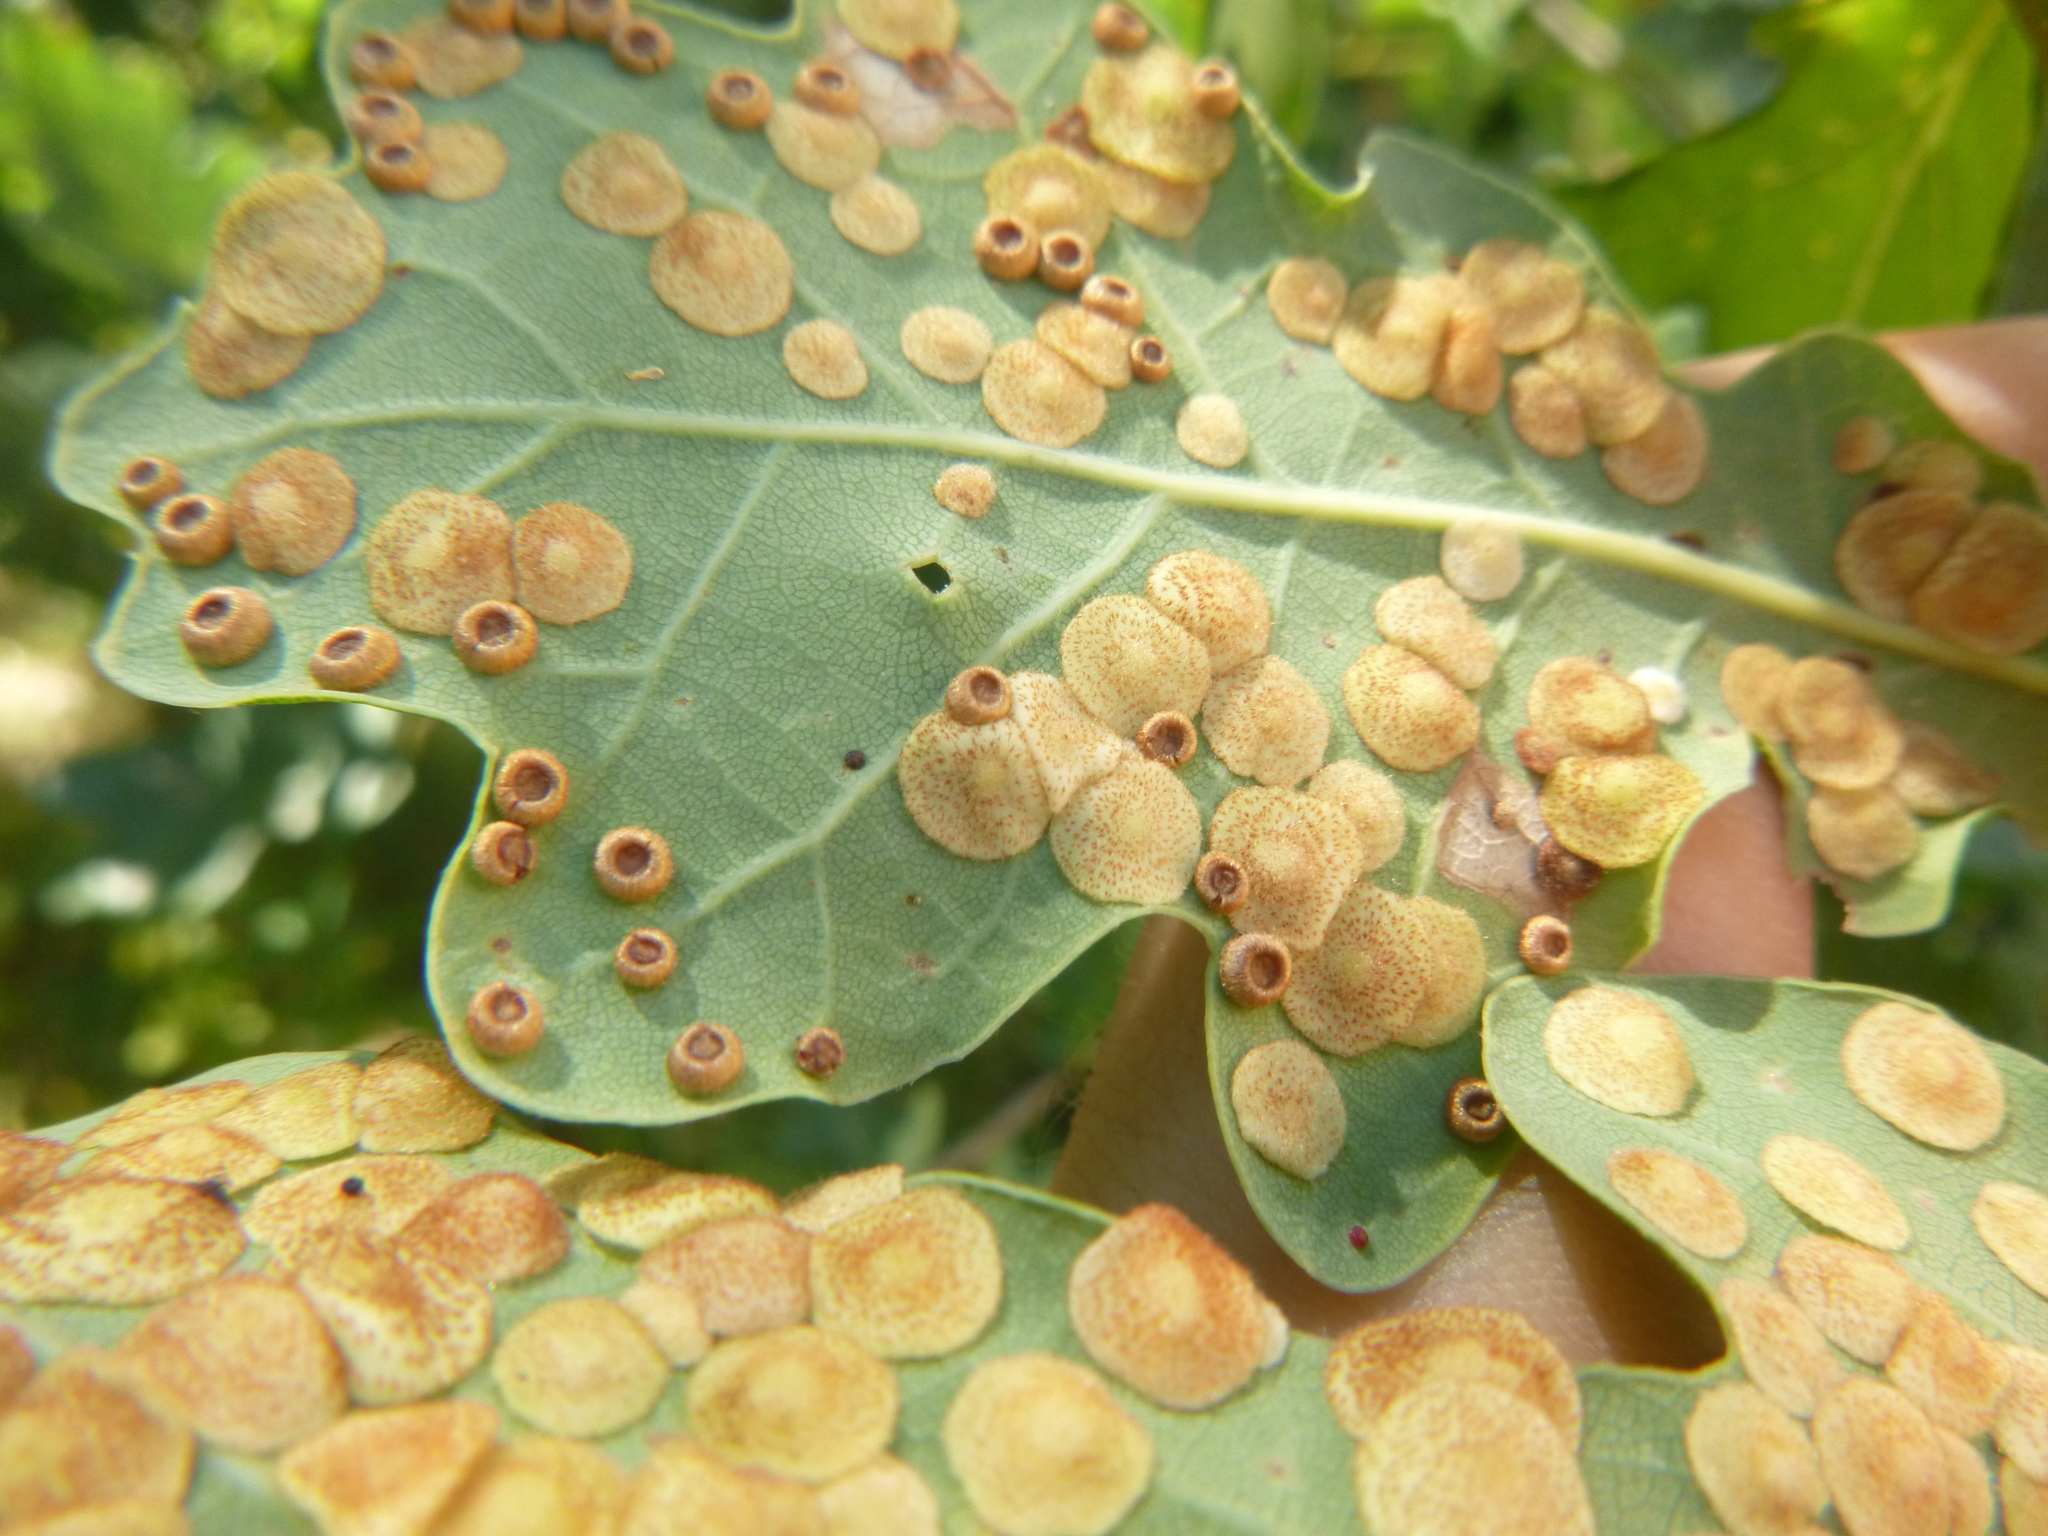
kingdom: Animalia
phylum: Arthropoda
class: Insecta
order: Hymenoptera
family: Cynipidae
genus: Neuroterus
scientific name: Neuroterus numismalis
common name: Silk-button spangle gall
